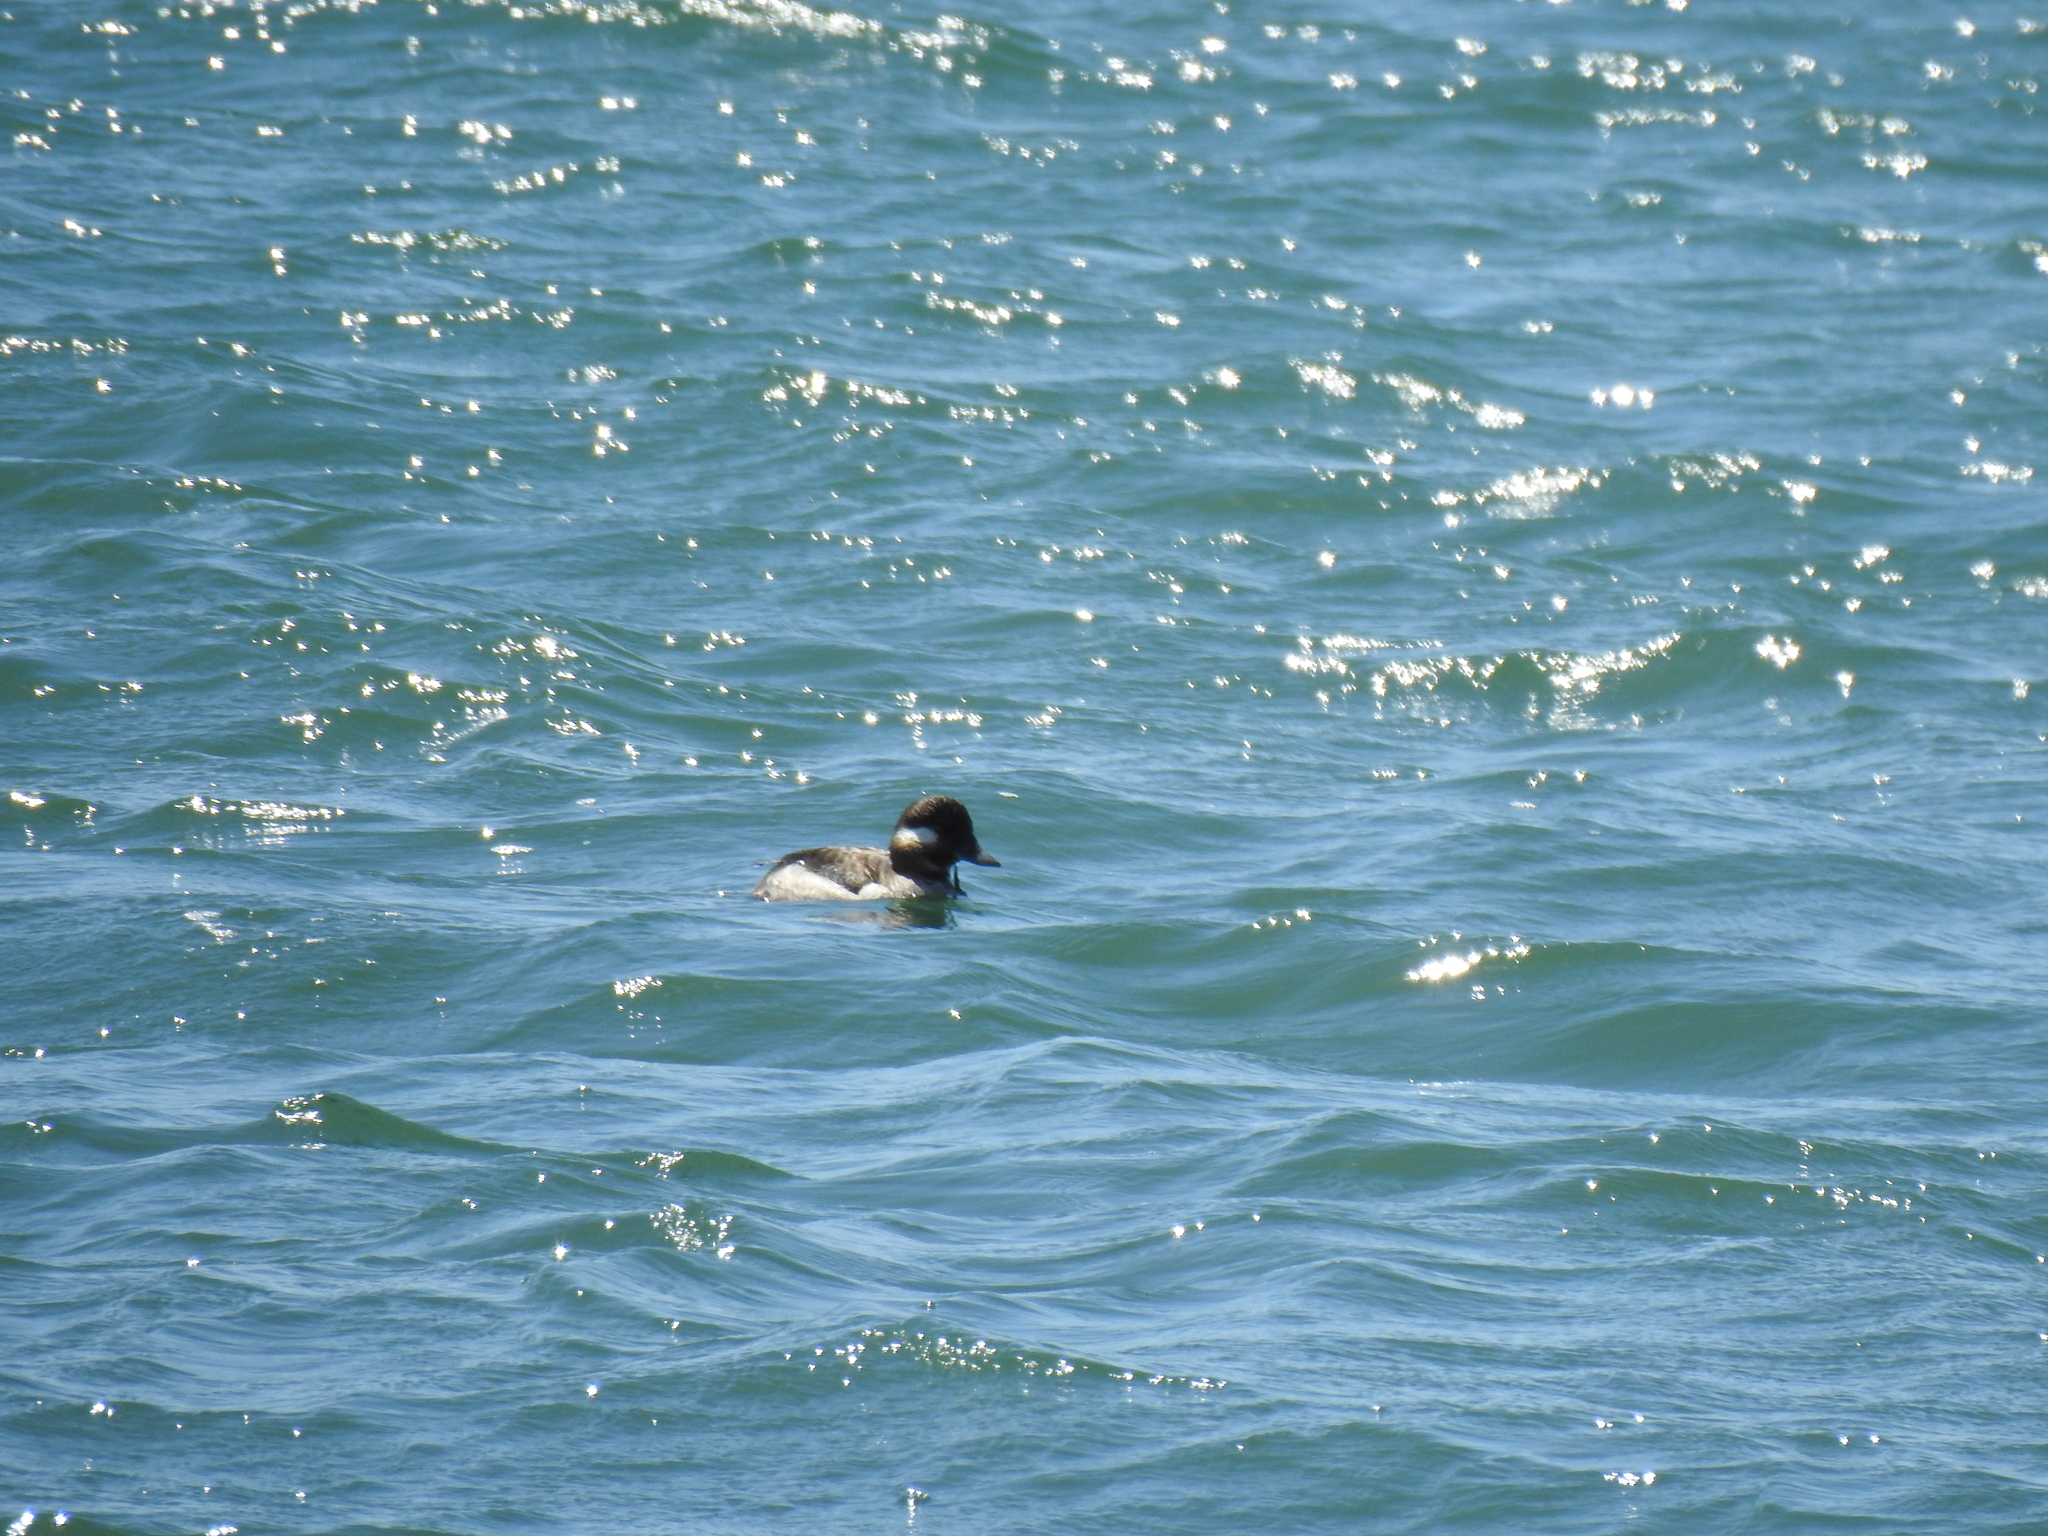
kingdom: Animalia
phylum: Chordata
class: Aves
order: Anseriformes
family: Anatidae
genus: Bucephala
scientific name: Bucephala albeola
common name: Bufflehead
